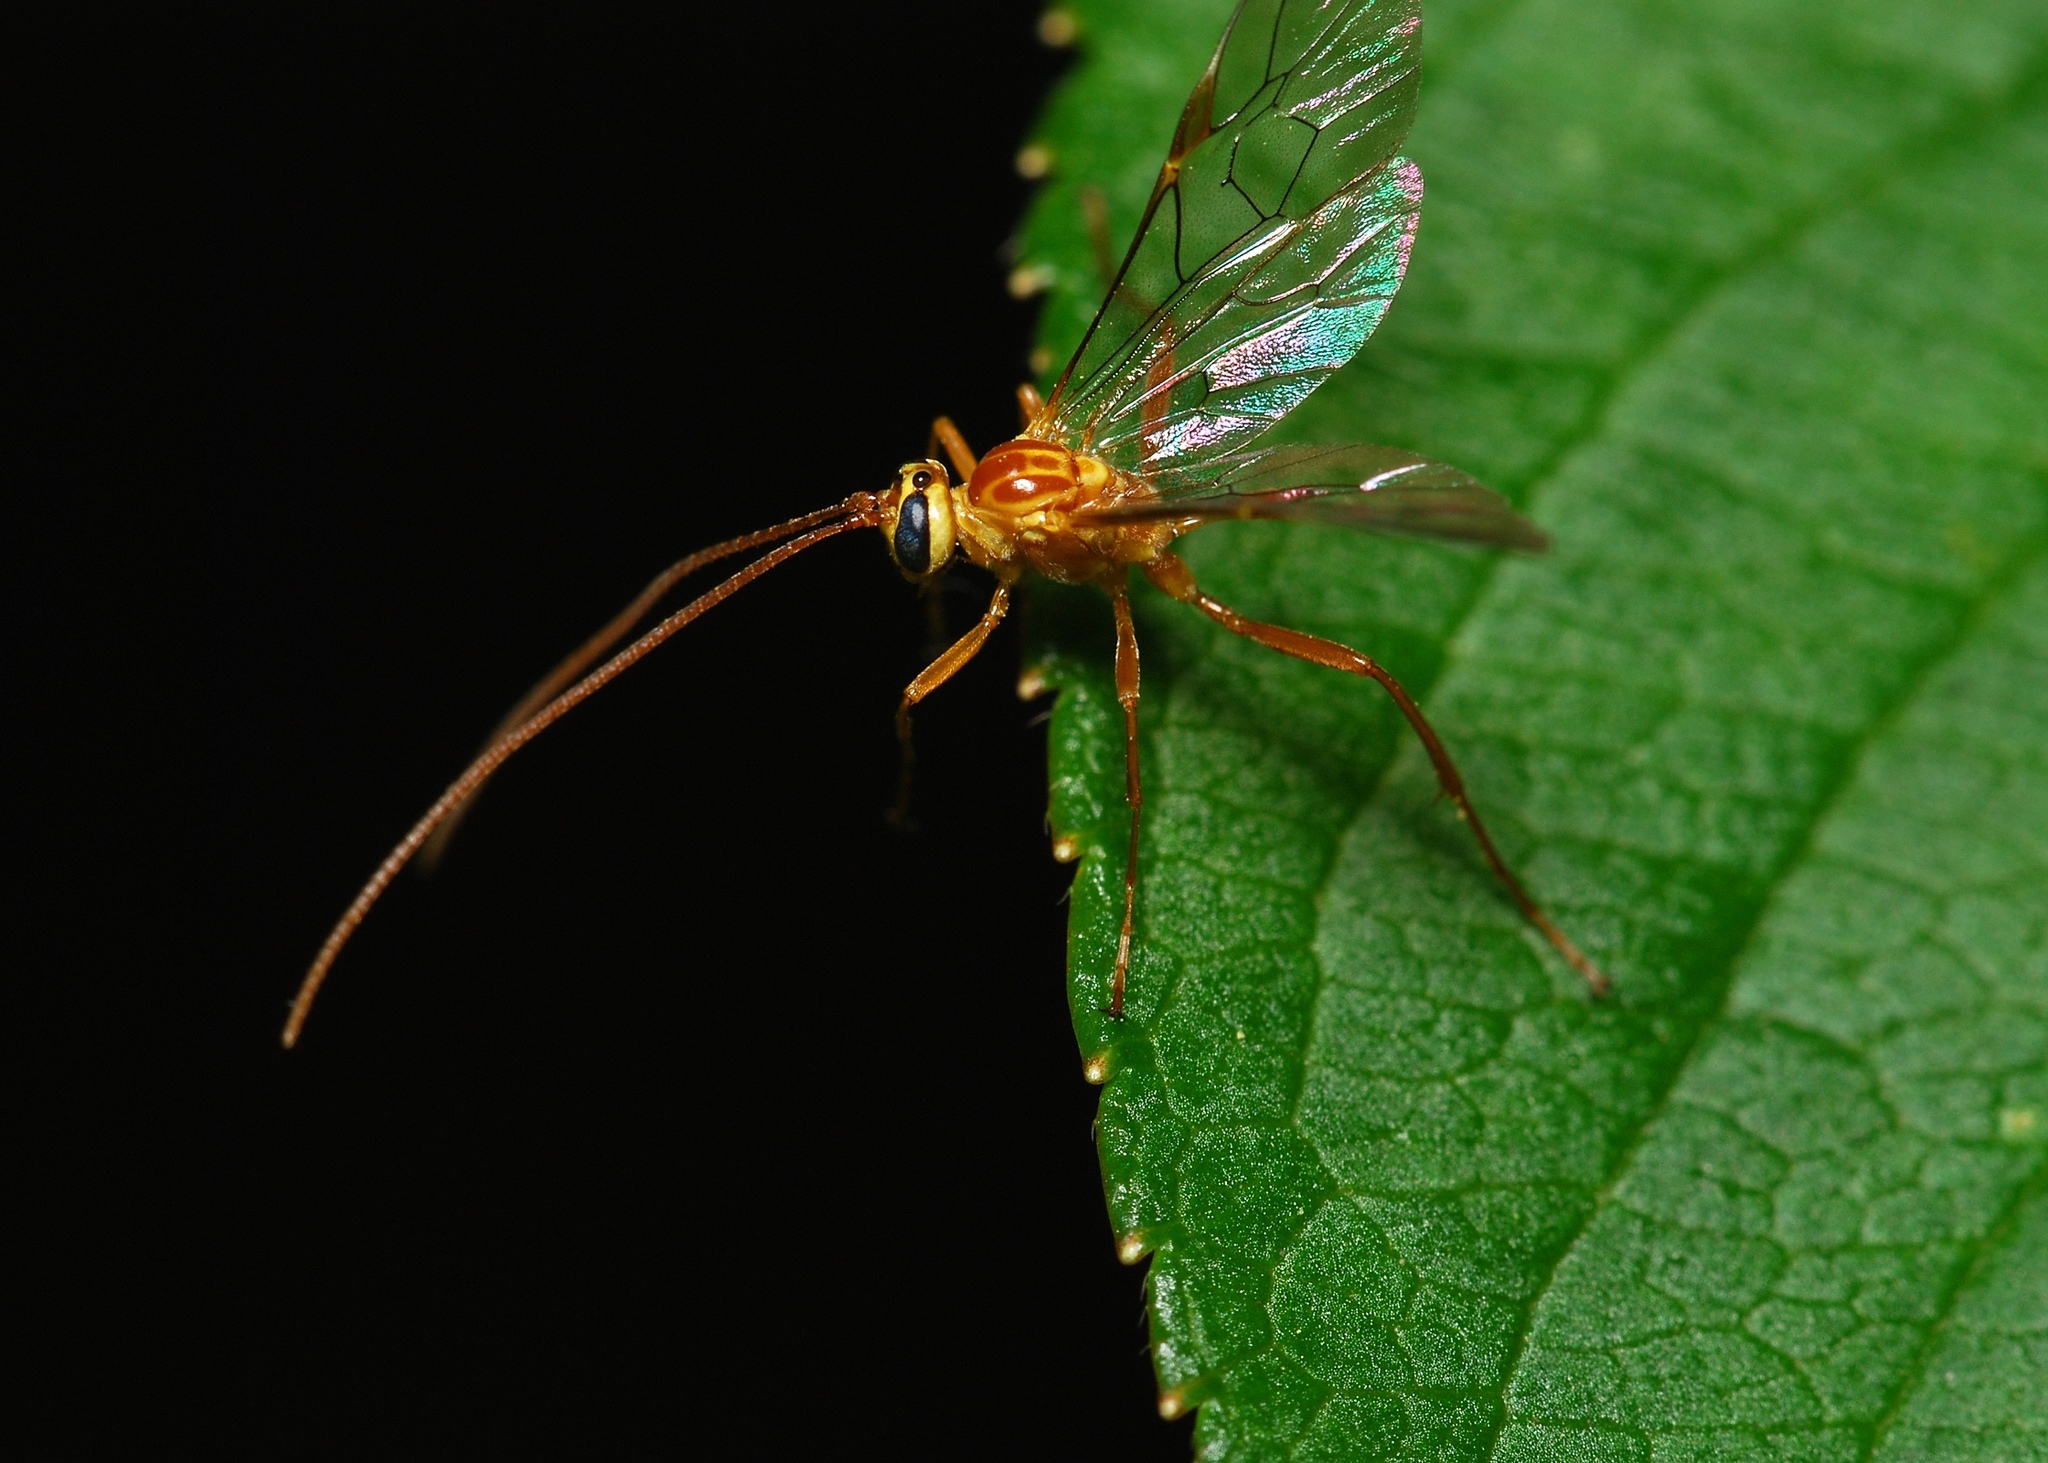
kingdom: Animalia
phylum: Arthropoda
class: Insecta
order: Hymenoptera
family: Ichneumonidae
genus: Ophion
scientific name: Ophion minutus
